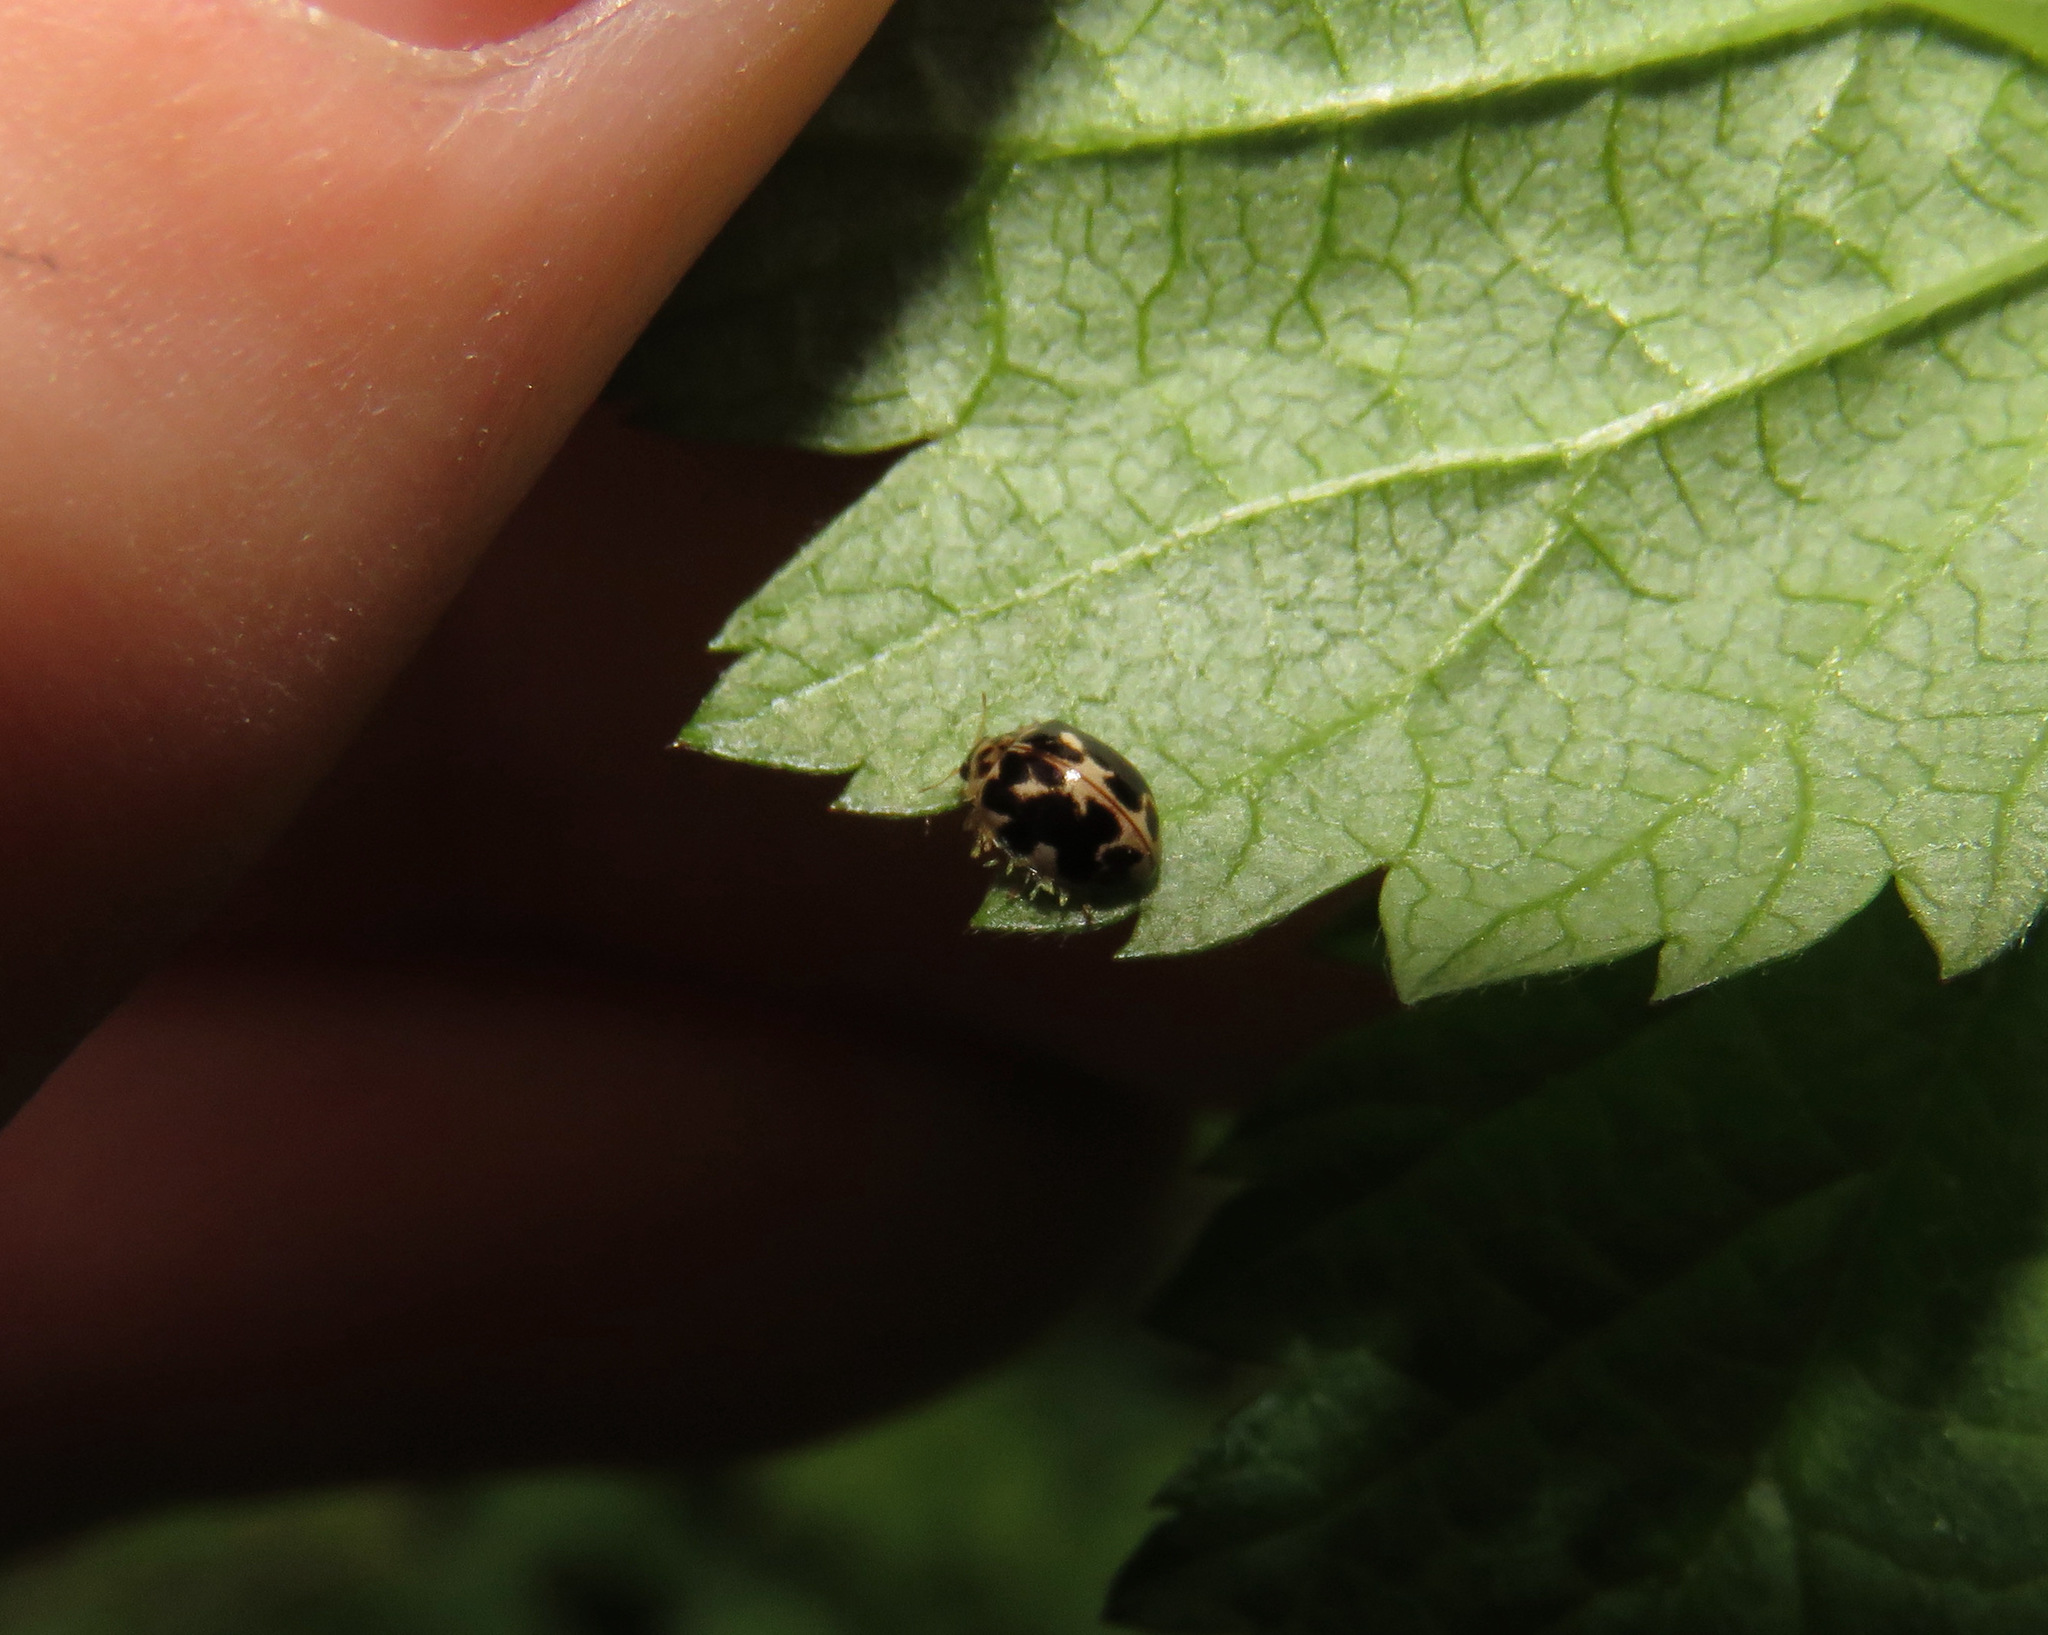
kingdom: Animalia
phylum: Arthropoda
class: Insecta
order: Coleoptera
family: Coccinellidae
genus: Psyllobora
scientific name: Psyllobora vigintimaculata
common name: Ladybird beetle
